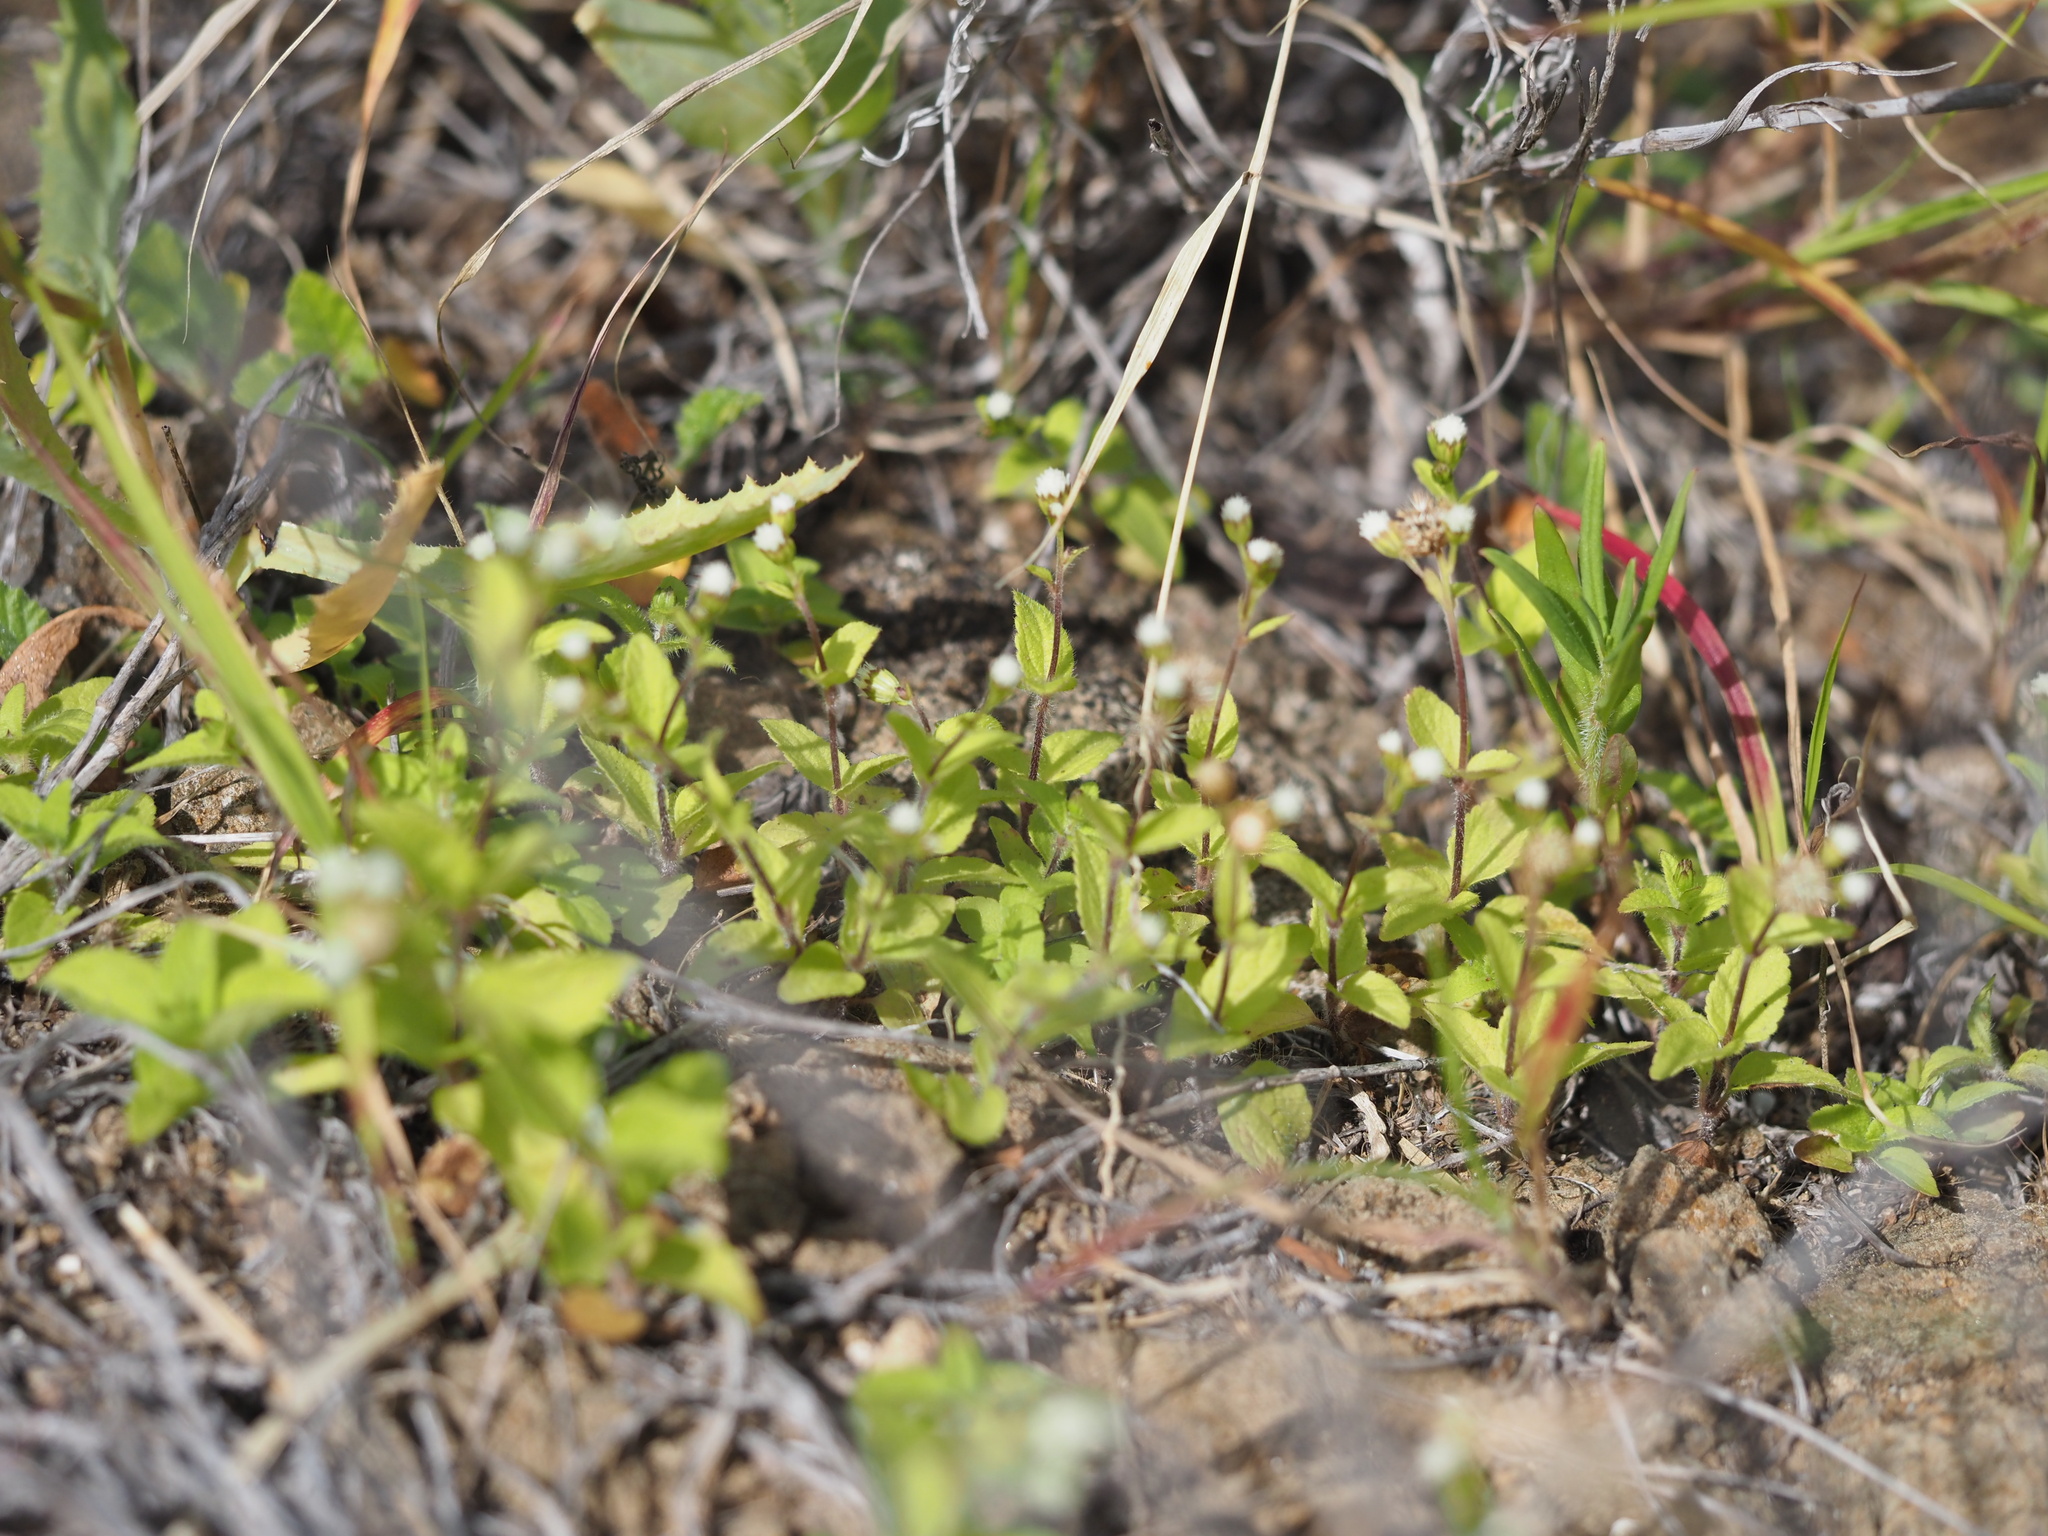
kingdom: Plantae
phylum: Tracheophyta
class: Magnoliopsida
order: Asterales
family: Asteraceae
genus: Ageratum
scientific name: Ageratum conyzoides
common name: Tropical whiteweed
